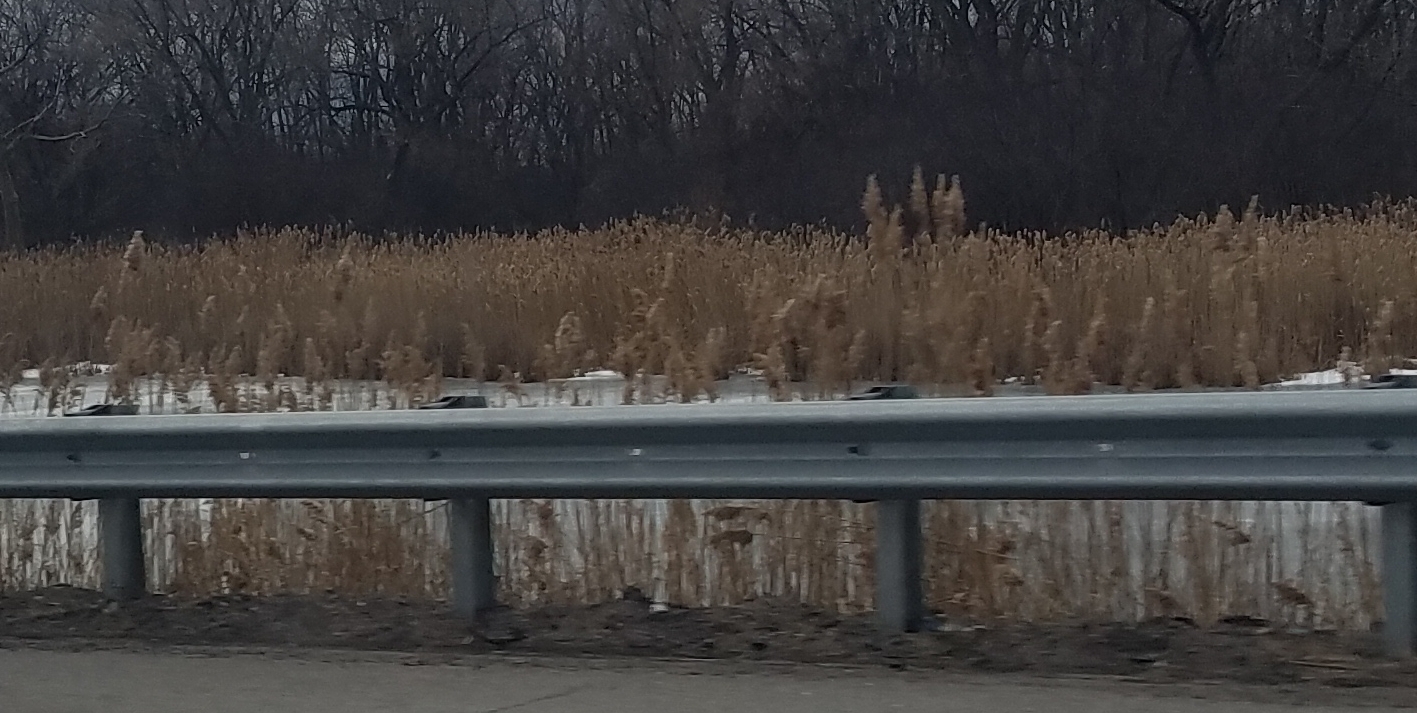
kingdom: Plantae
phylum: Tracheophyta
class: Liliopsida
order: Poales
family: Poaceae
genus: Phragmites
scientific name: Phragmites australis
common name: Common reed
